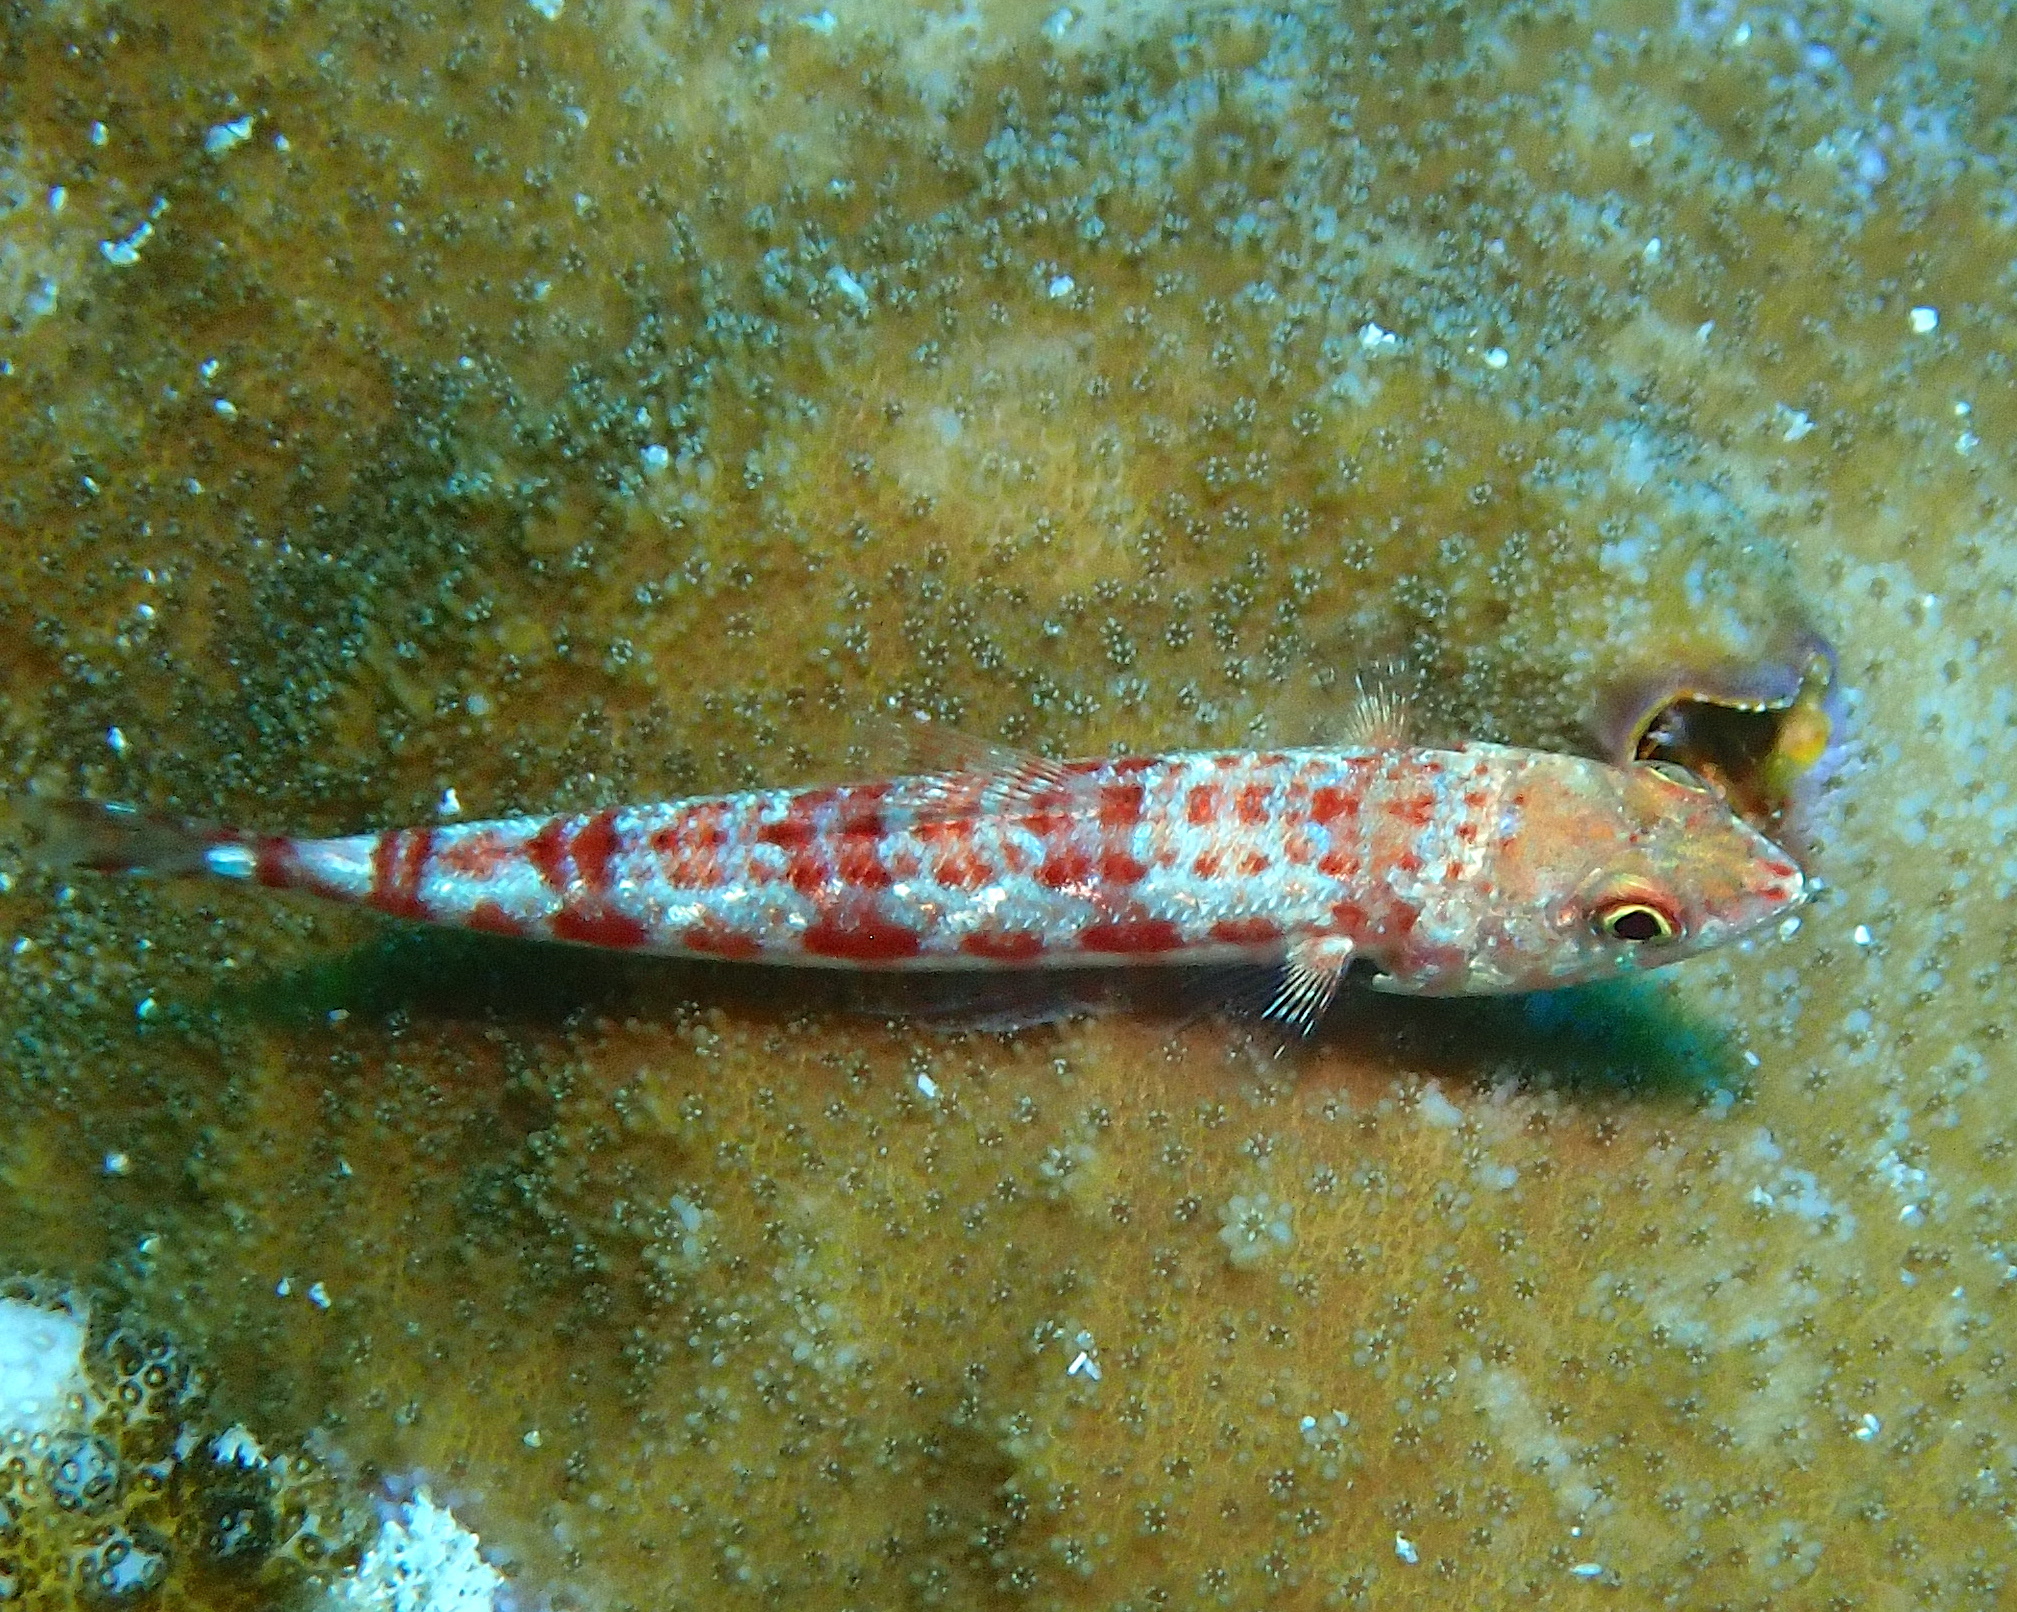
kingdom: Animalia
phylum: Chordata
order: Aulopiformes
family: Synodontidae
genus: Synodus
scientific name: Synodus variegatus
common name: Variegated lizardfish
